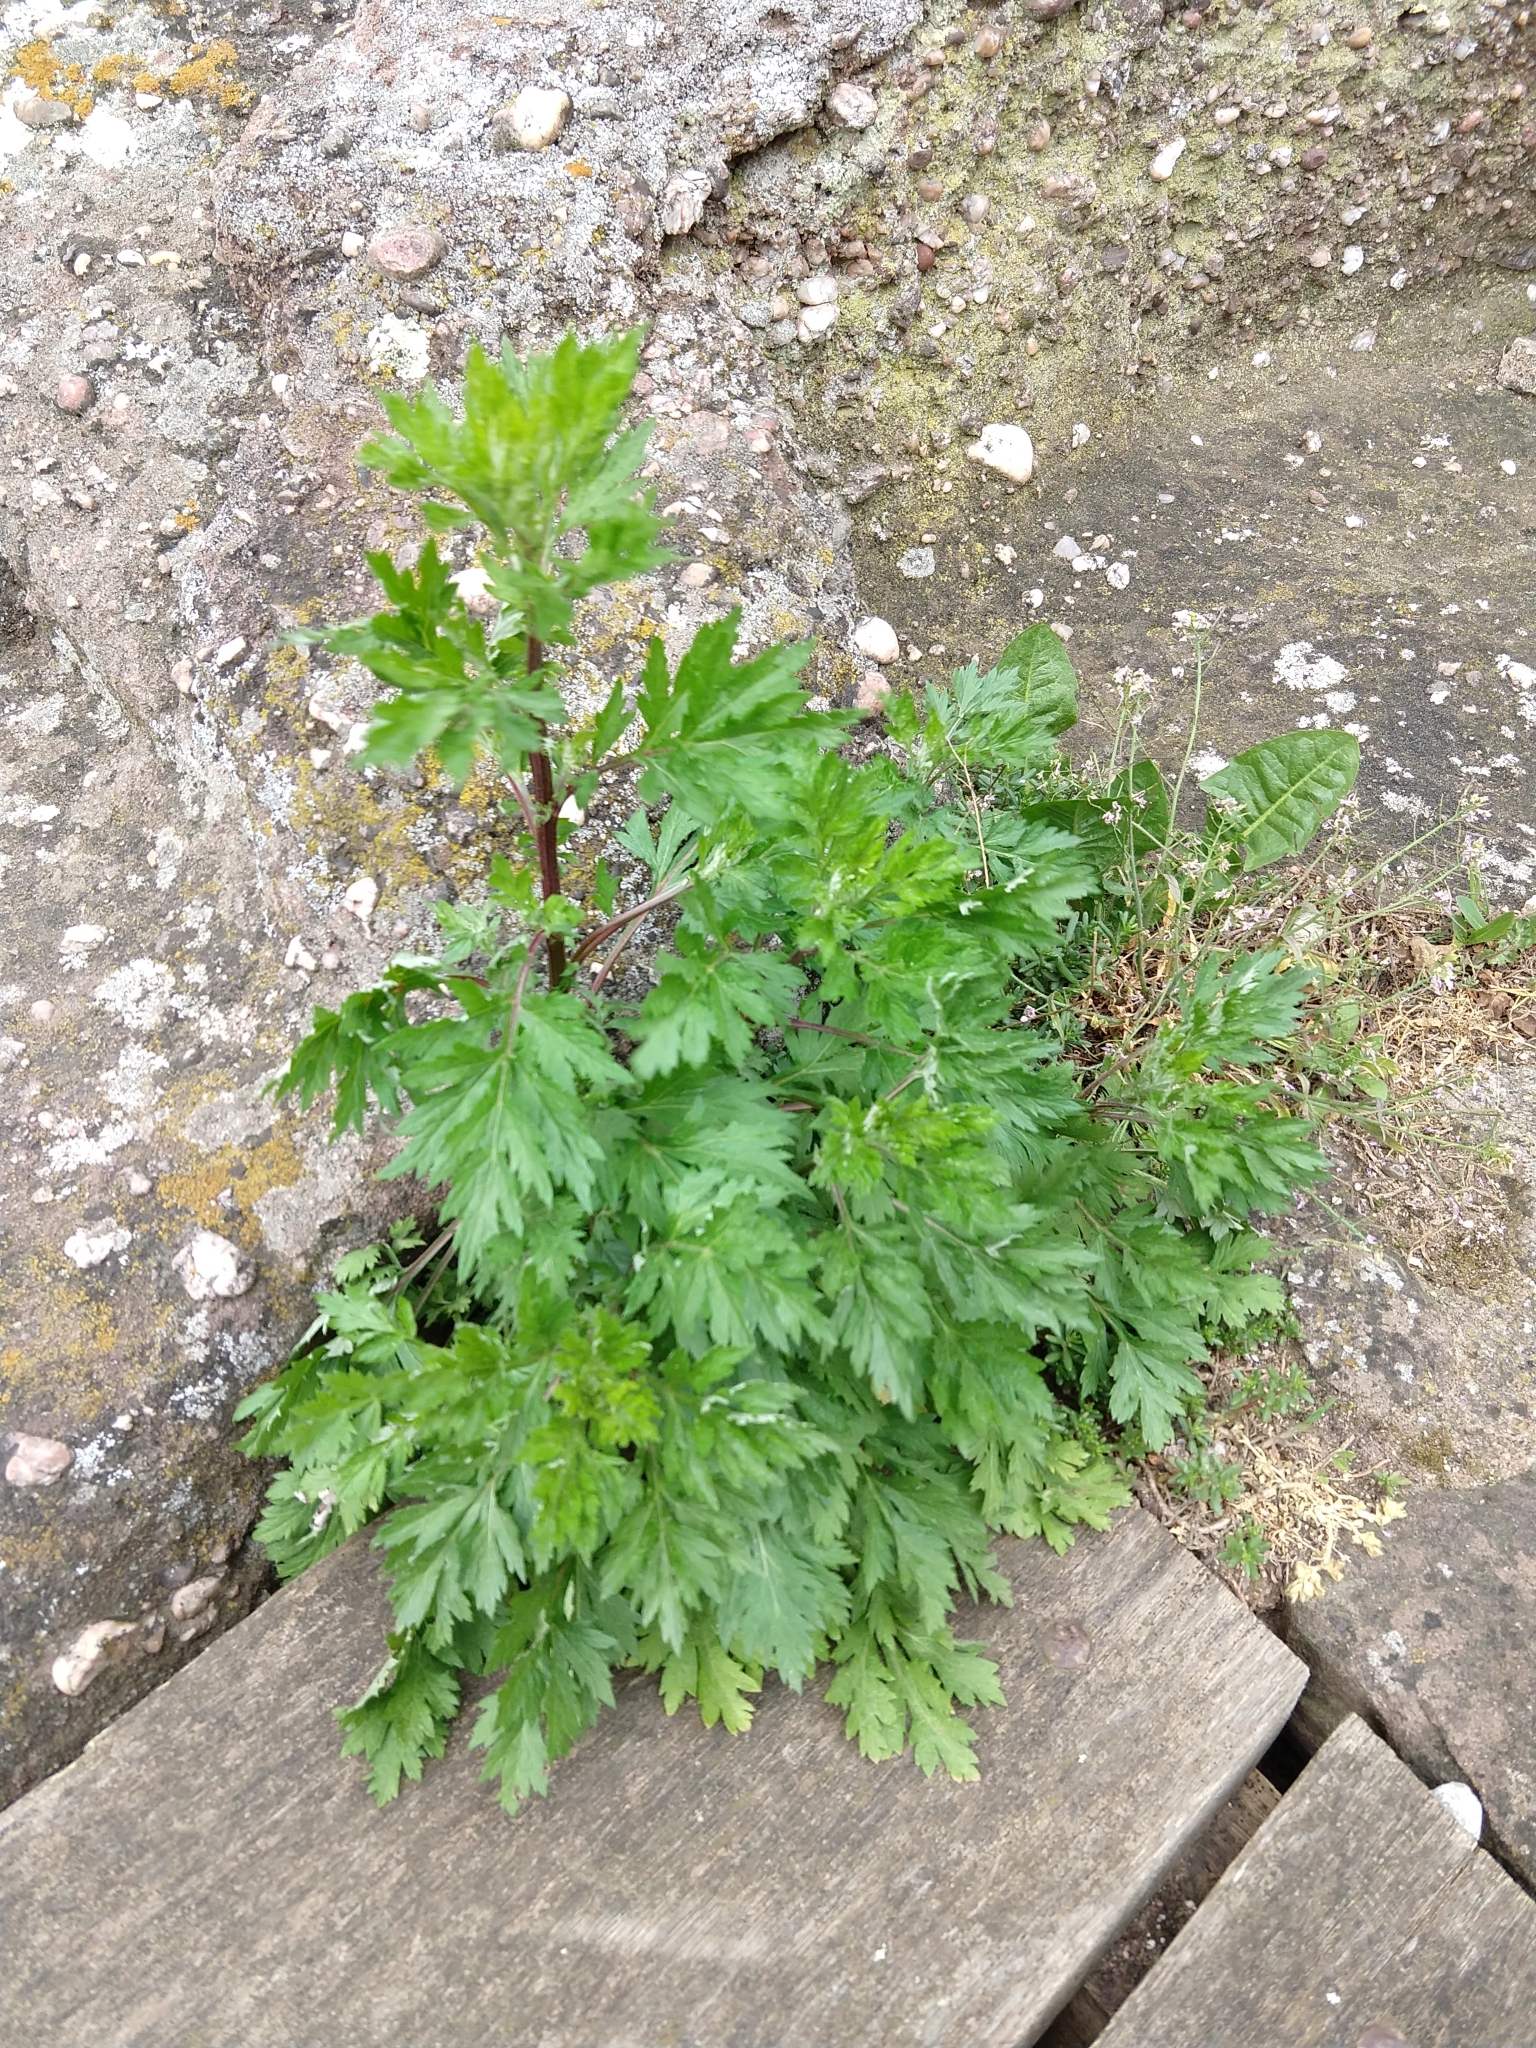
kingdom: Plantae
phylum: Tracheophyta
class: Magnoliopsida
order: Asterales
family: Asteraceae
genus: Artemisia
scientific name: Artemisia vulgaris
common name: Mugwort
